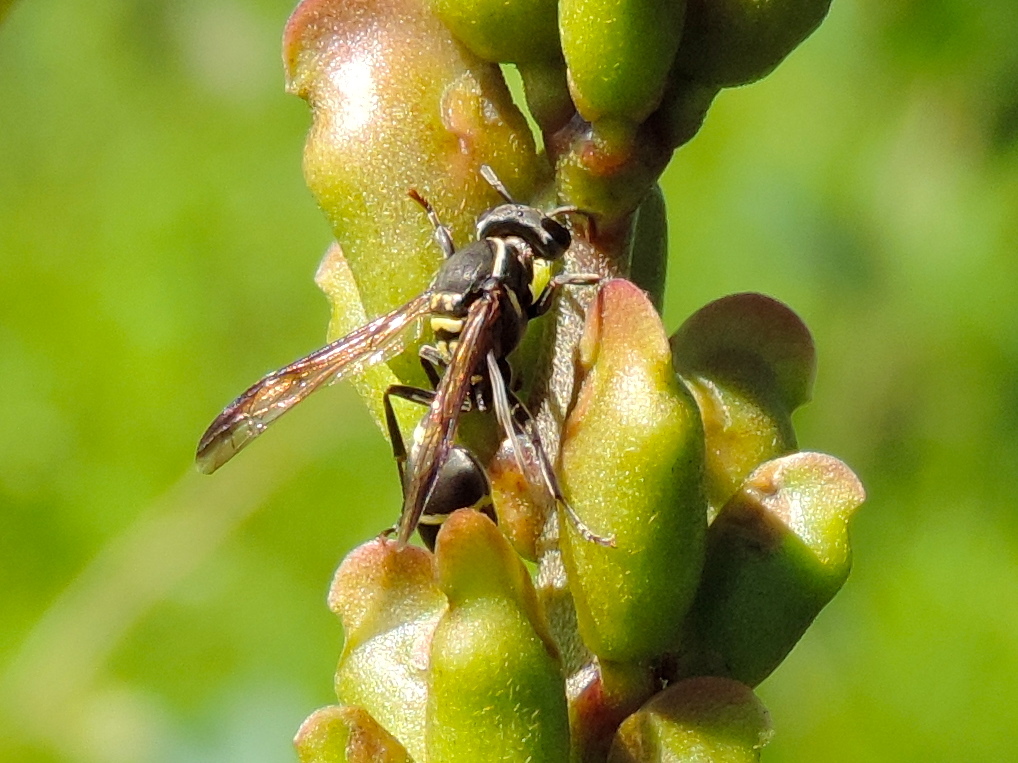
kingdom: Animalia
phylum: Arthropoda
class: Insecta
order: Hymenoptera
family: Vespidae
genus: Myrapetra
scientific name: Myrapetra
